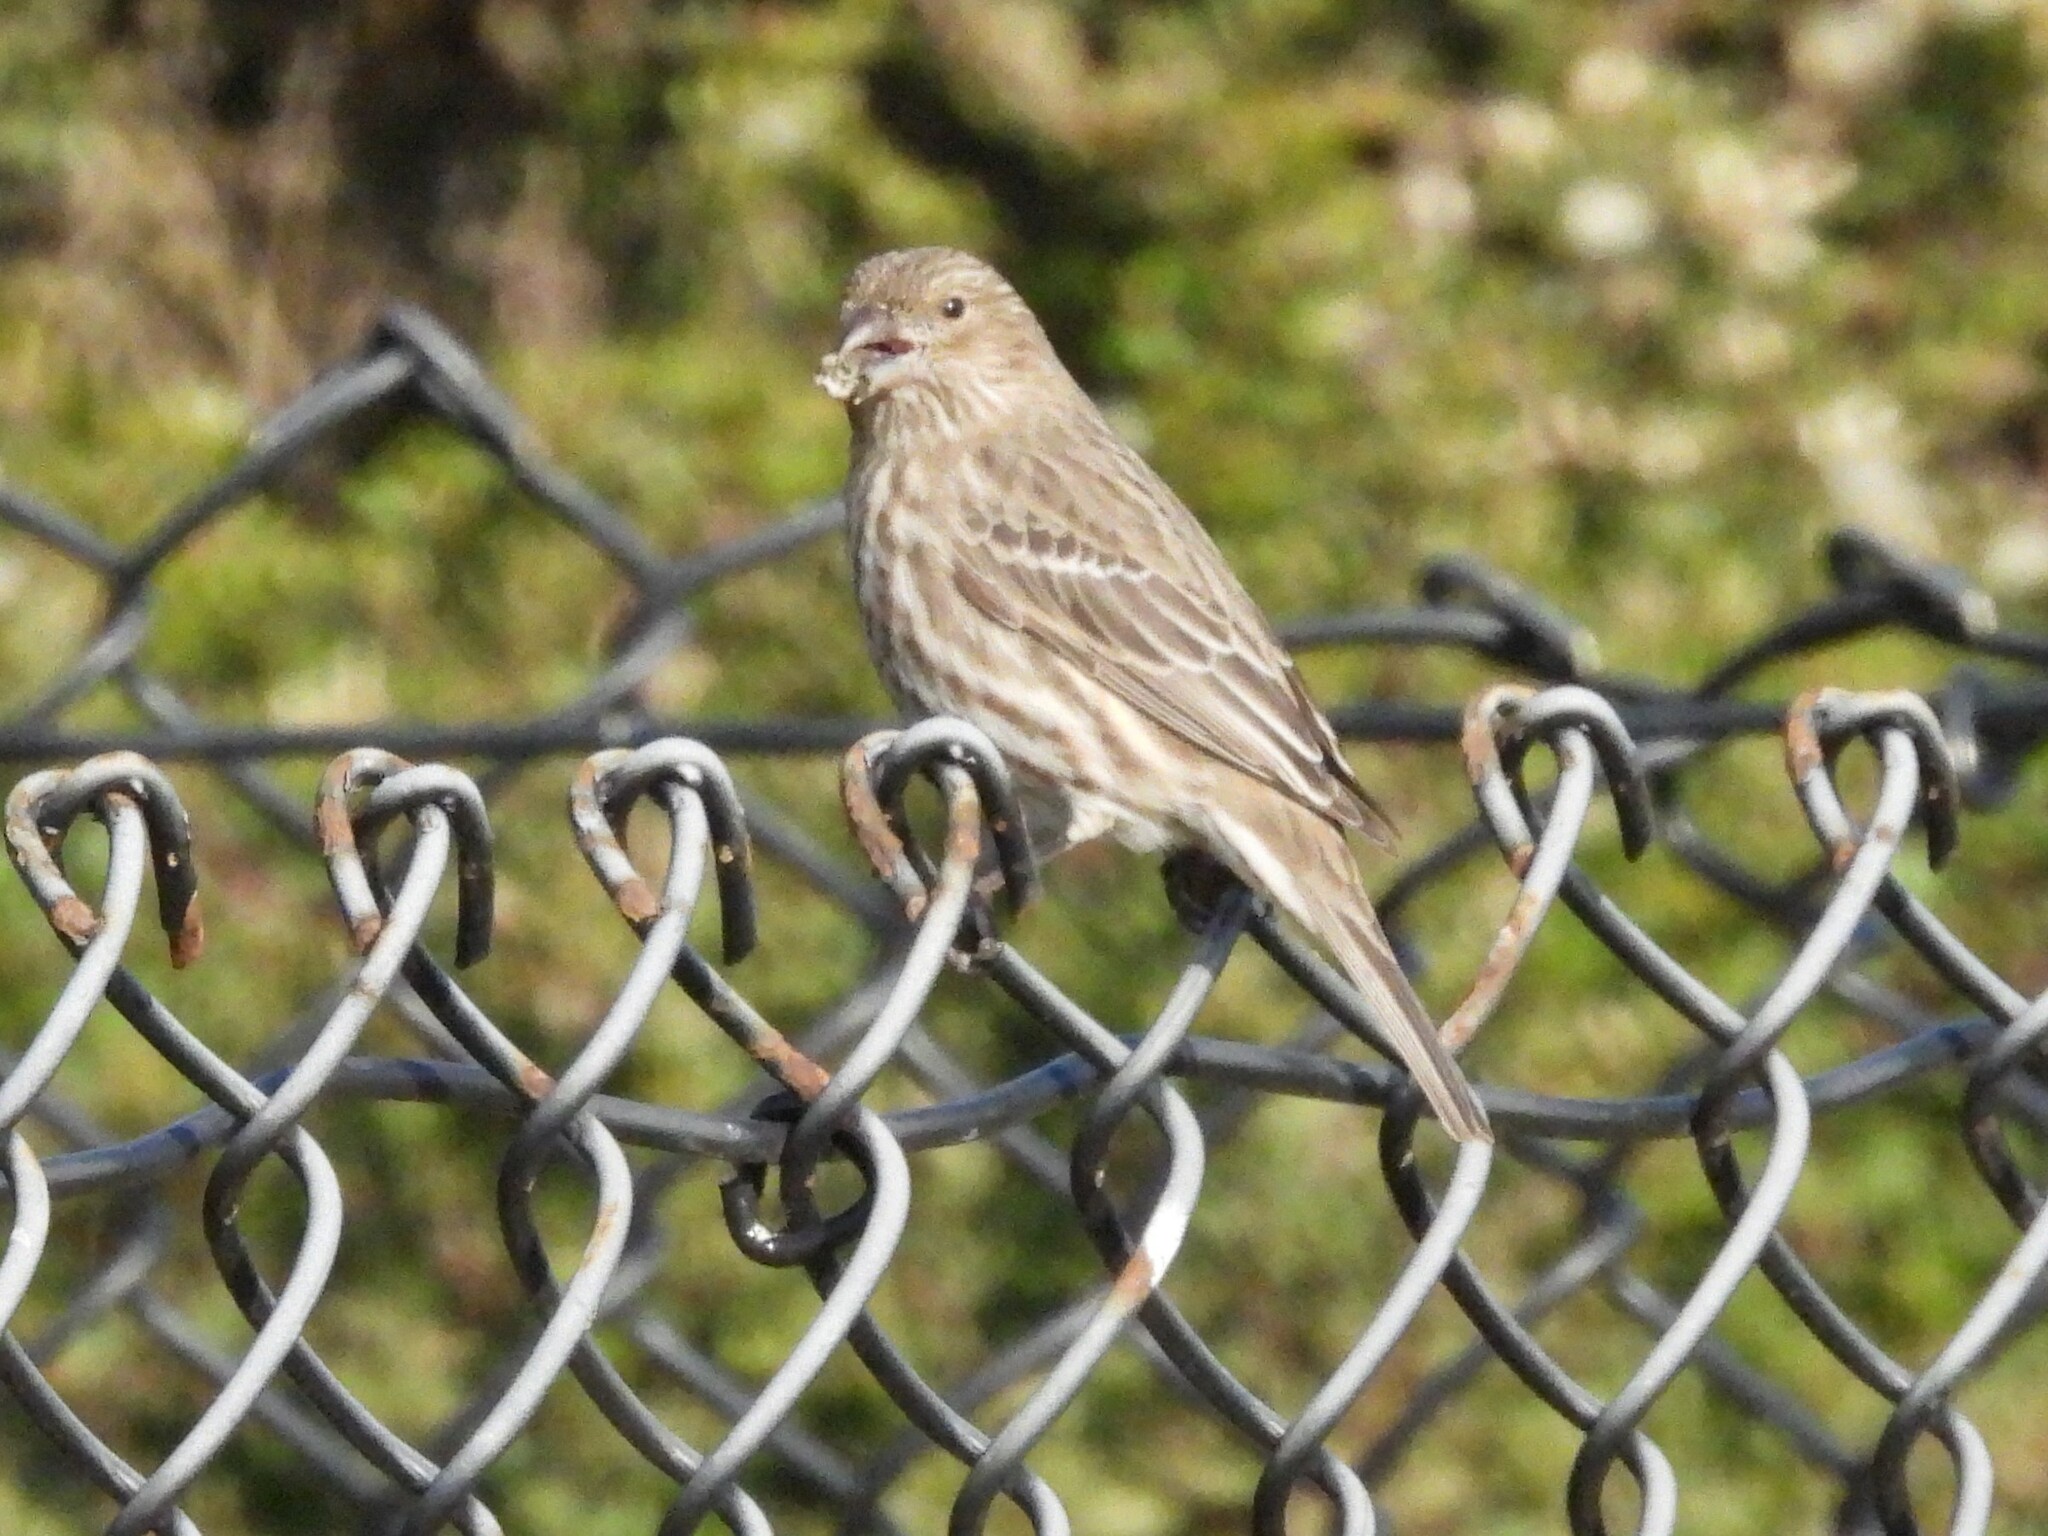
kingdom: Animalia
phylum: Chordata
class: Aves
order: Passeriformes
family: Fringillidae
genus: Haemorhous
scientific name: Haemorhous mexicanus
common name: House finch
